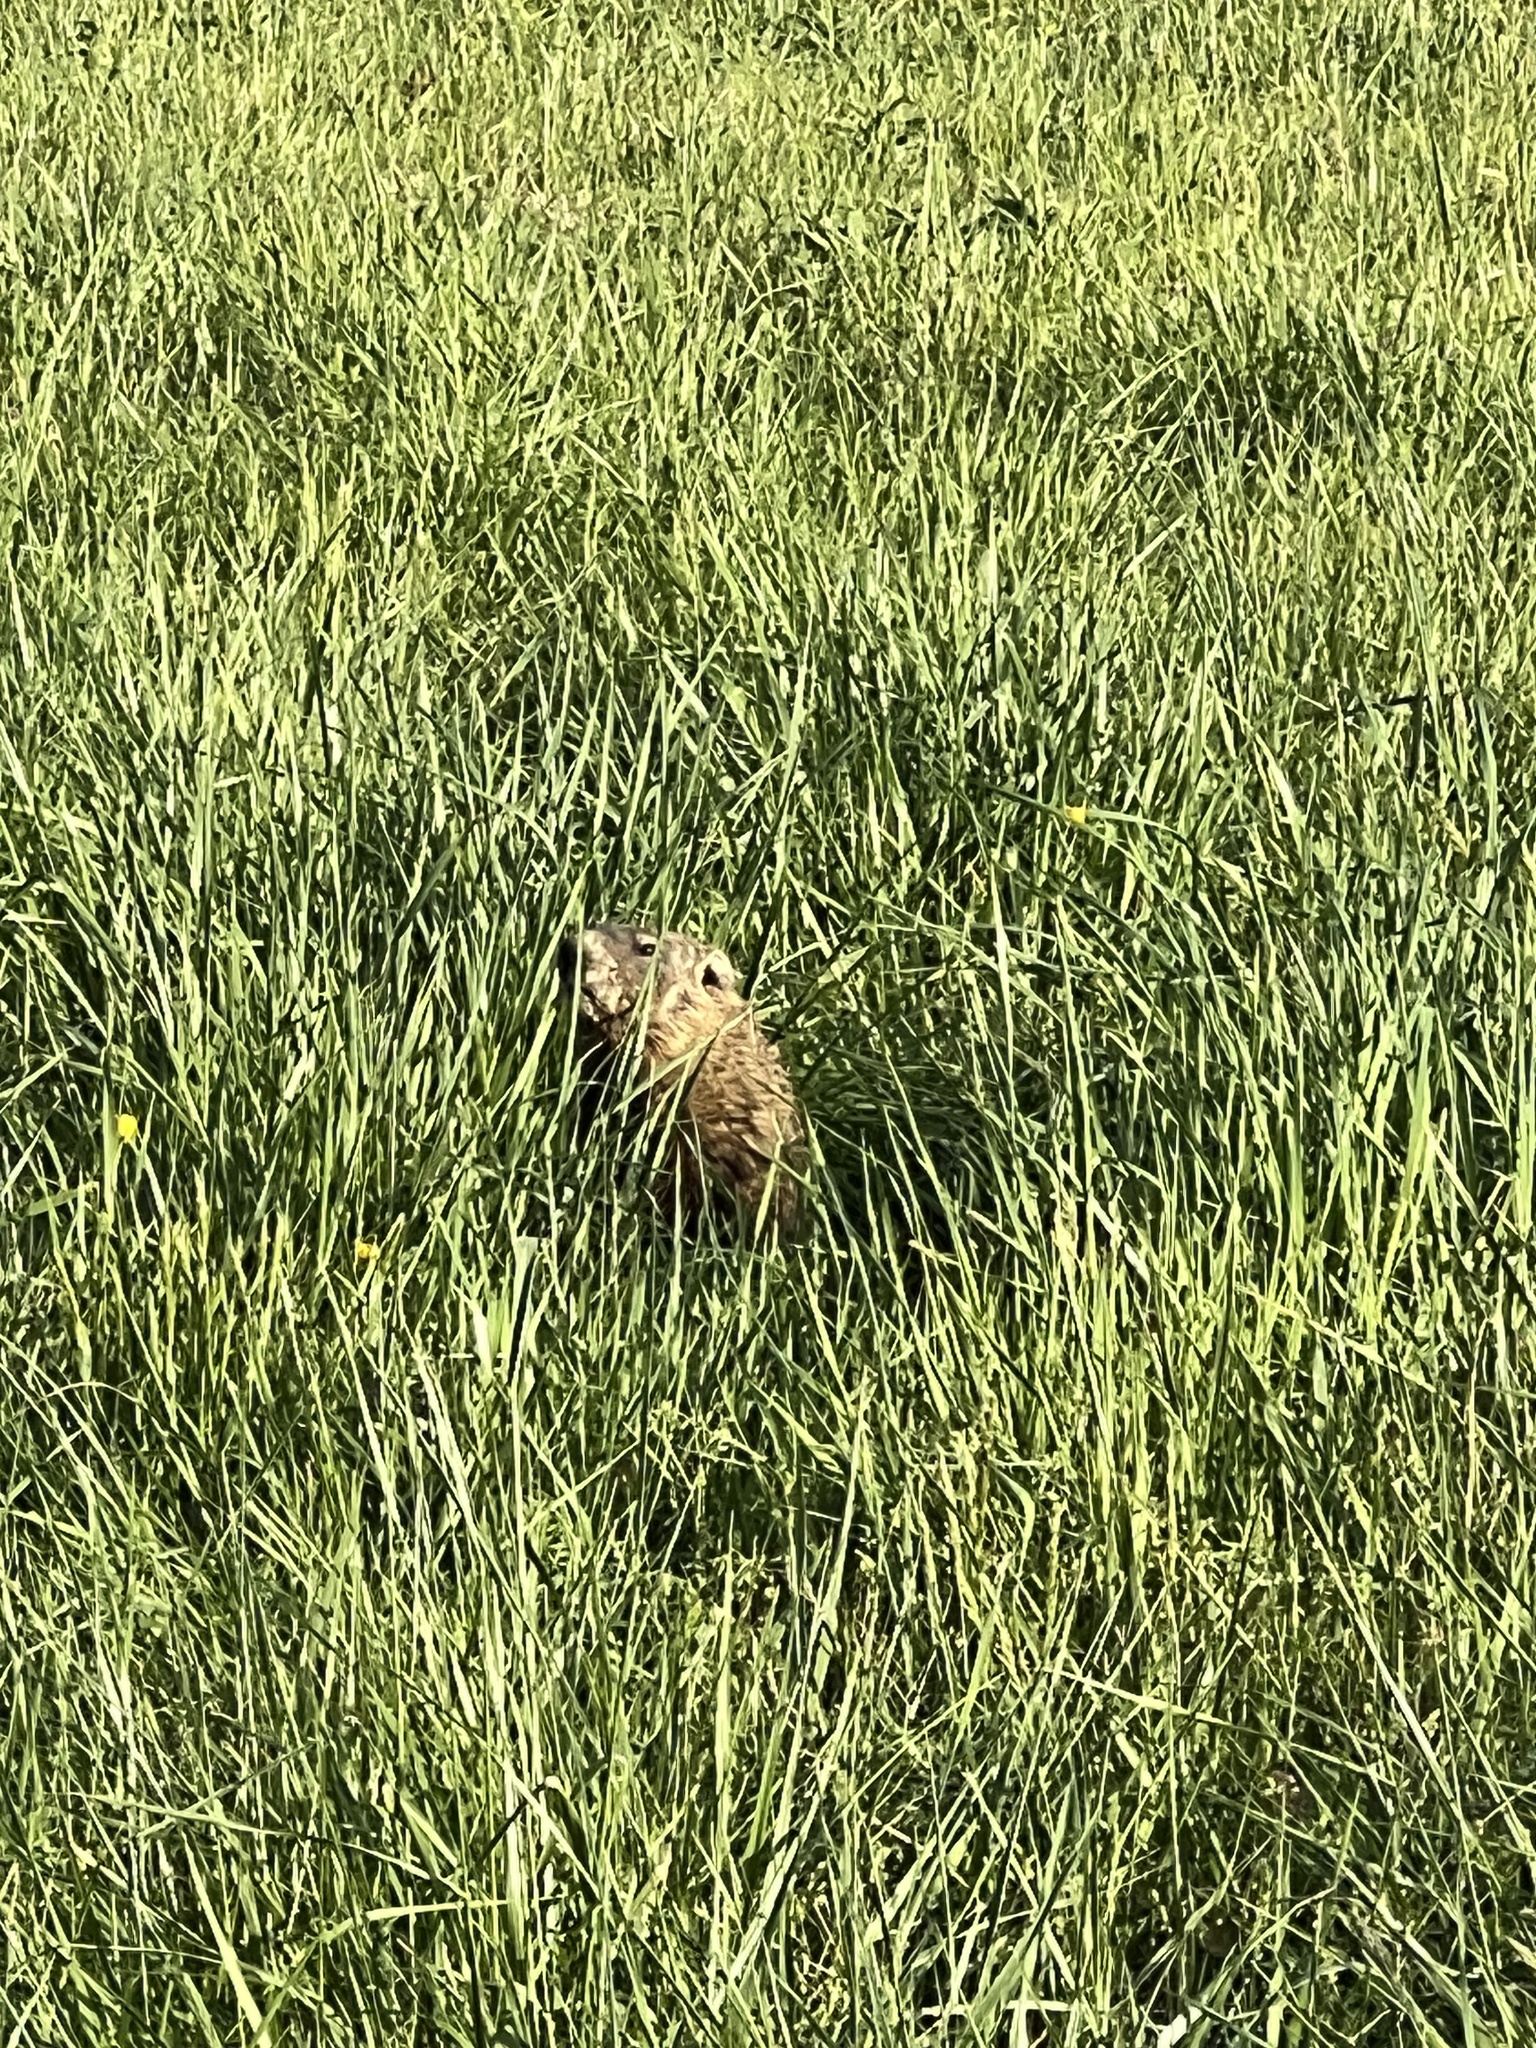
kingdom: Animalia
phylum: Chordata
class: Mammalia
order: Rodentia
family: Sciuridae
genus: Marmota
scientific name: Marmota monax
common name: Groundhog
